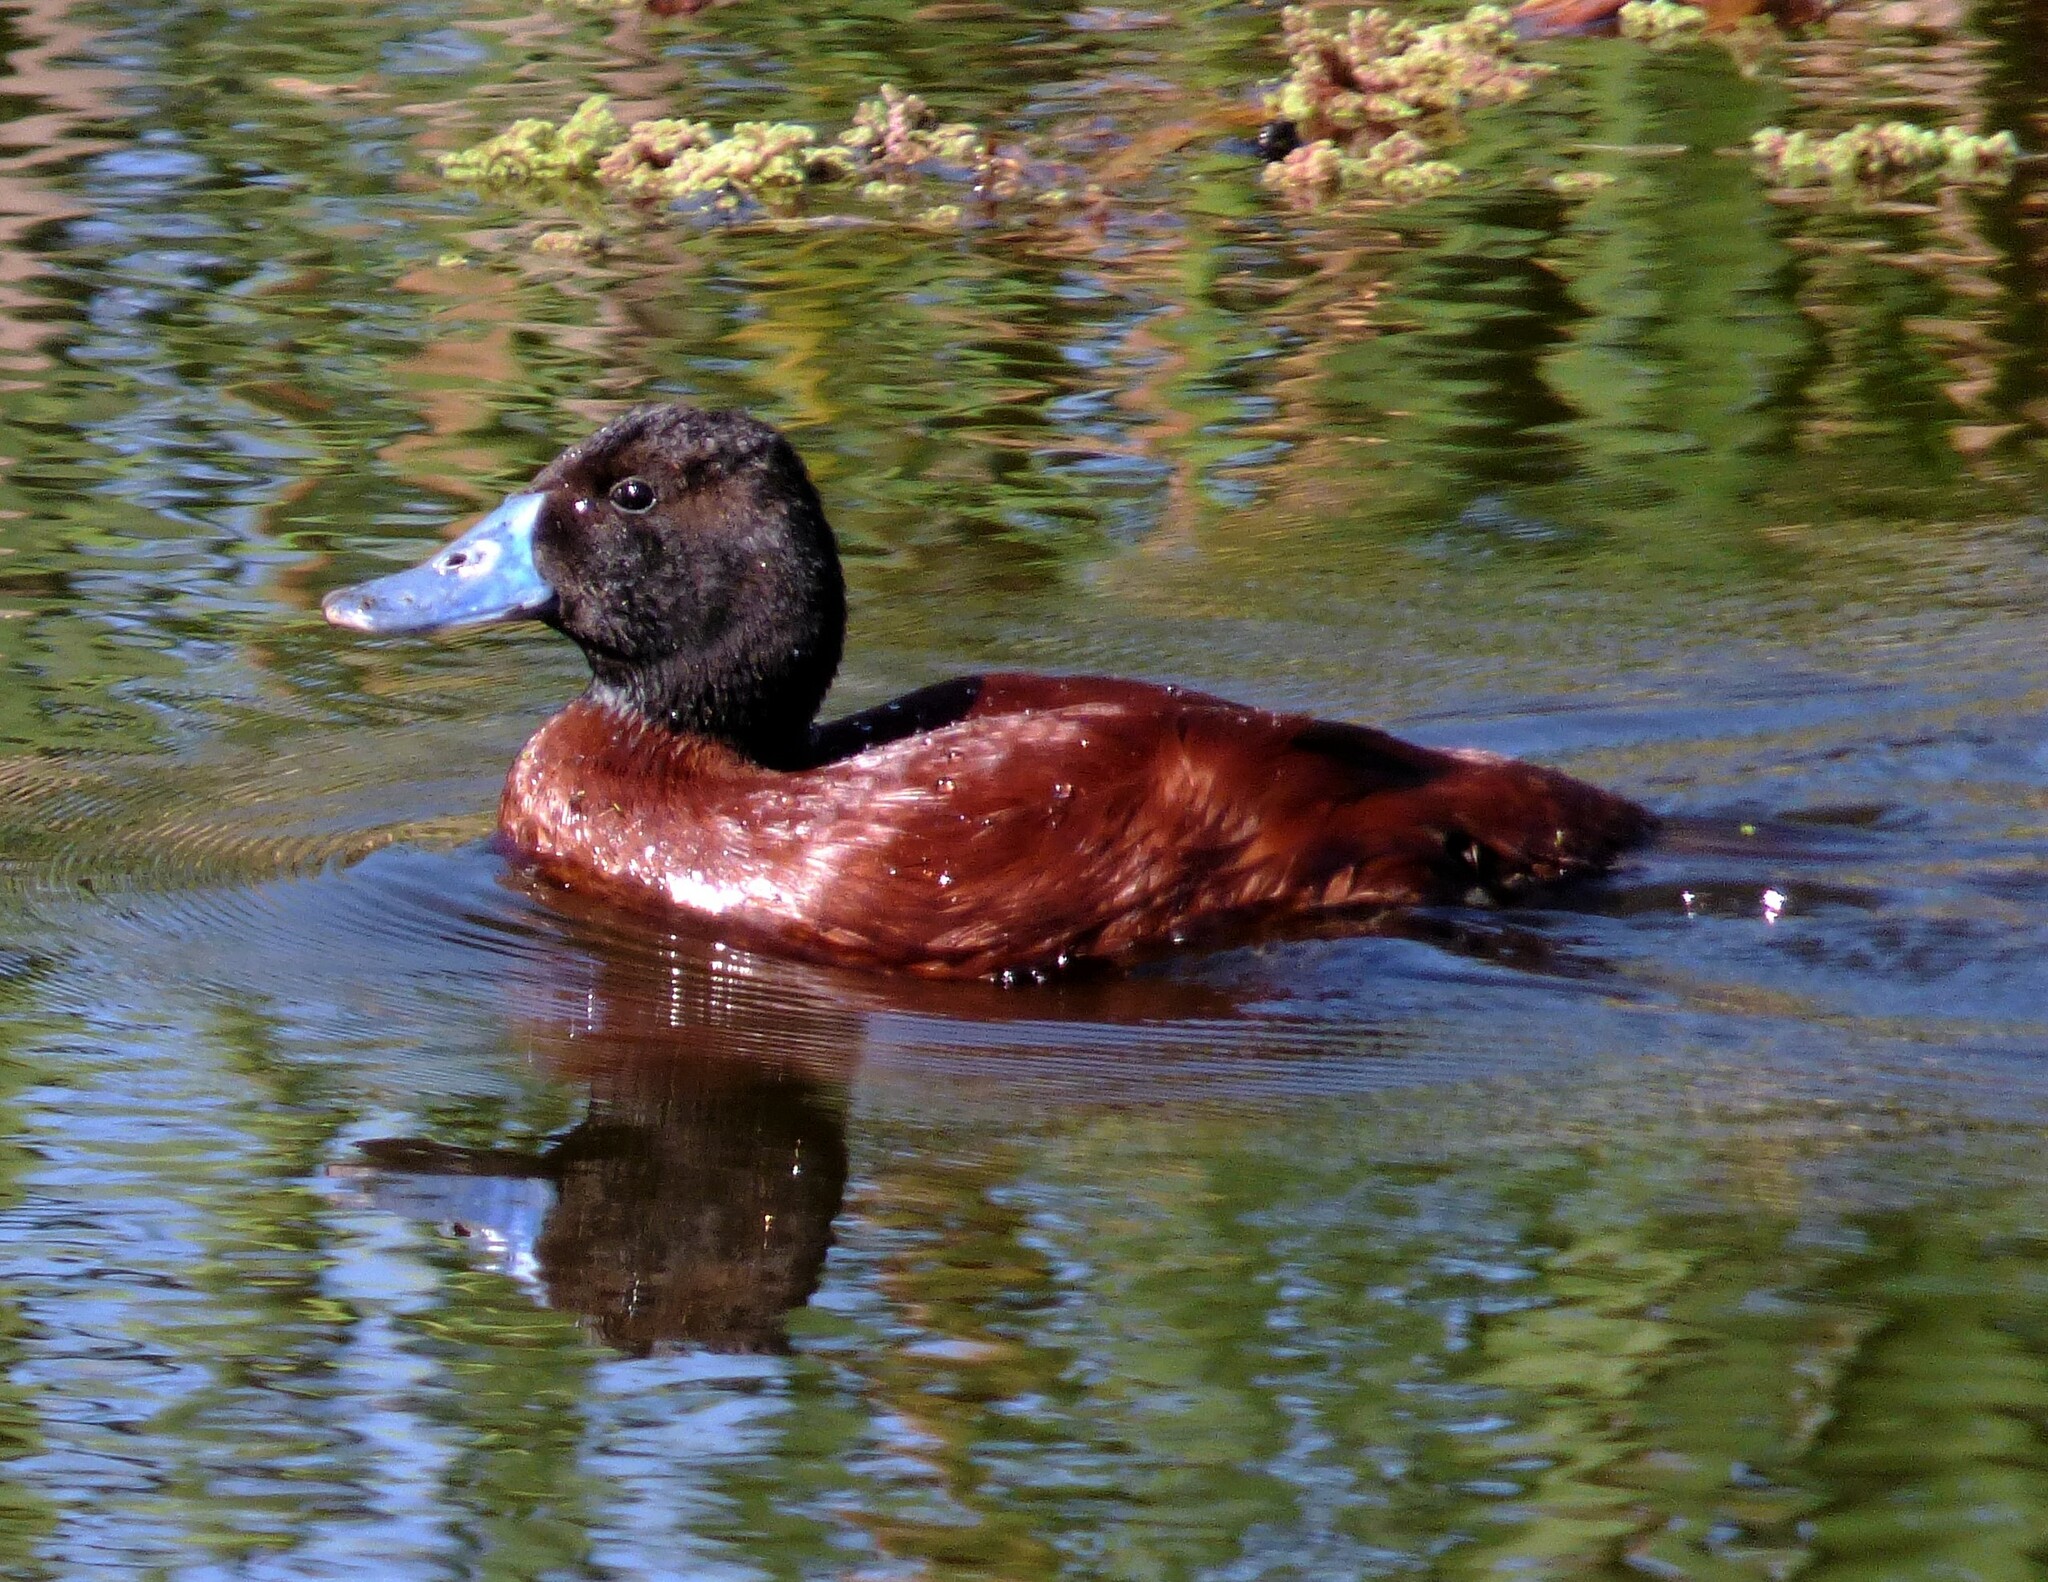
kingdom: Animalia
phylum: Chordata
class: Aves
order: Anseriformes
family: Anatidae
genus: Oxyura
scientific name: Oxyura vittata
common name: Lake duck
